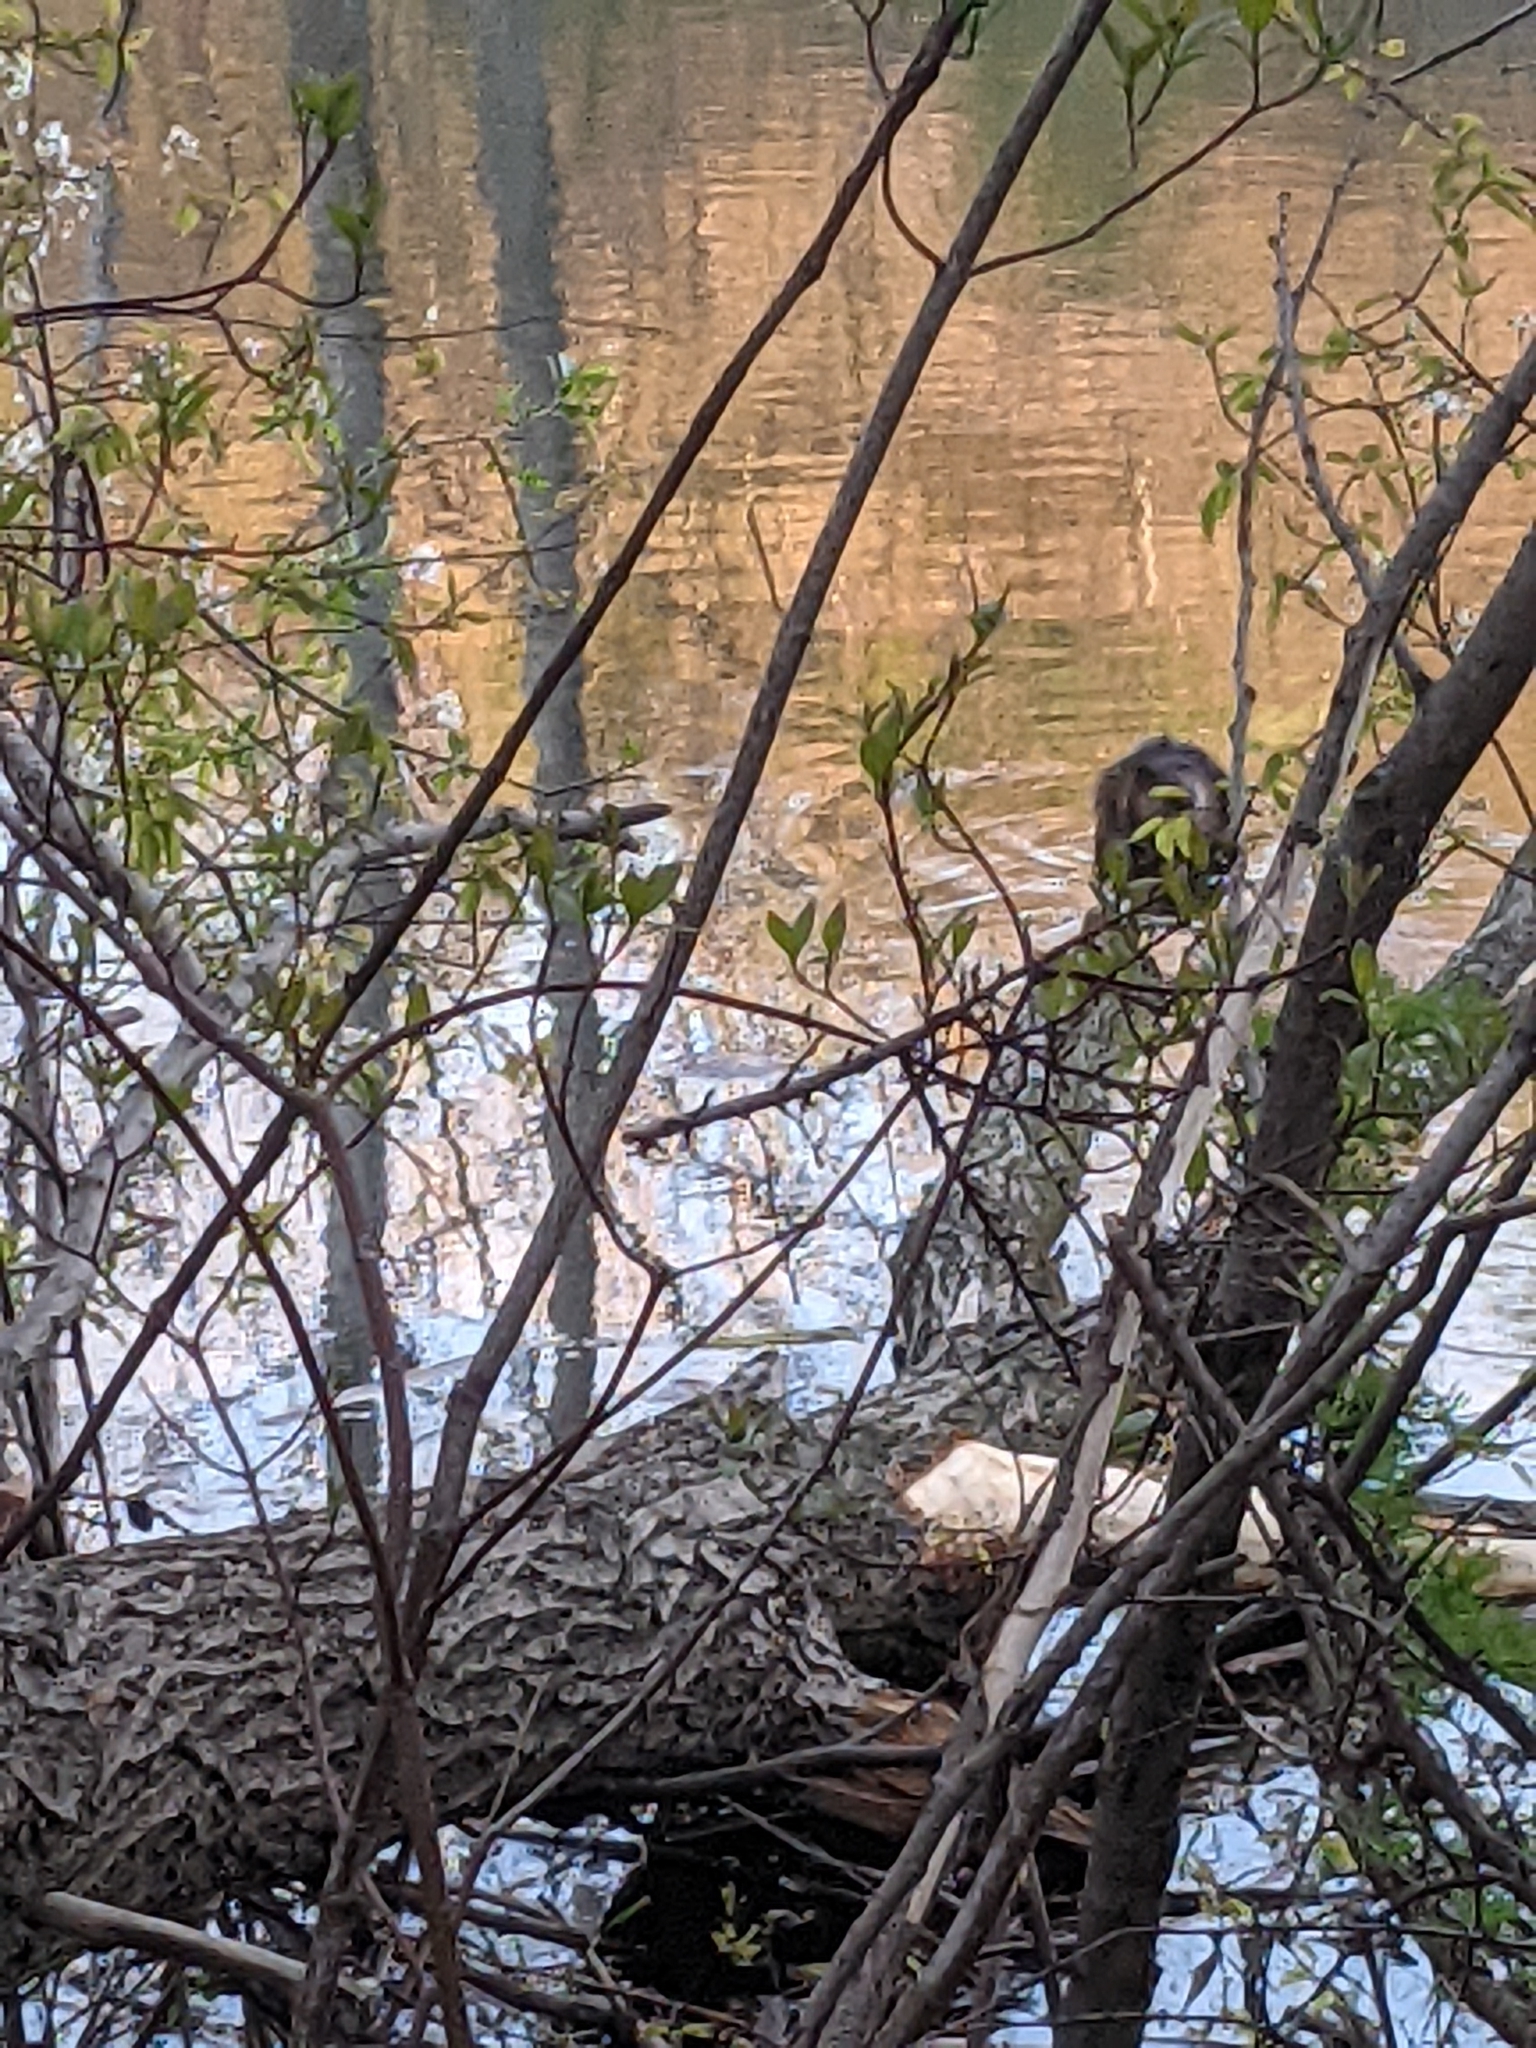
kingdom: Animalia
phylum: Chordata
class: Mammalia
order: Rodentia
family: Cricetidae
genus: Ondatra
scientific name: Ondatra zibethicus
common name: Muskrat
